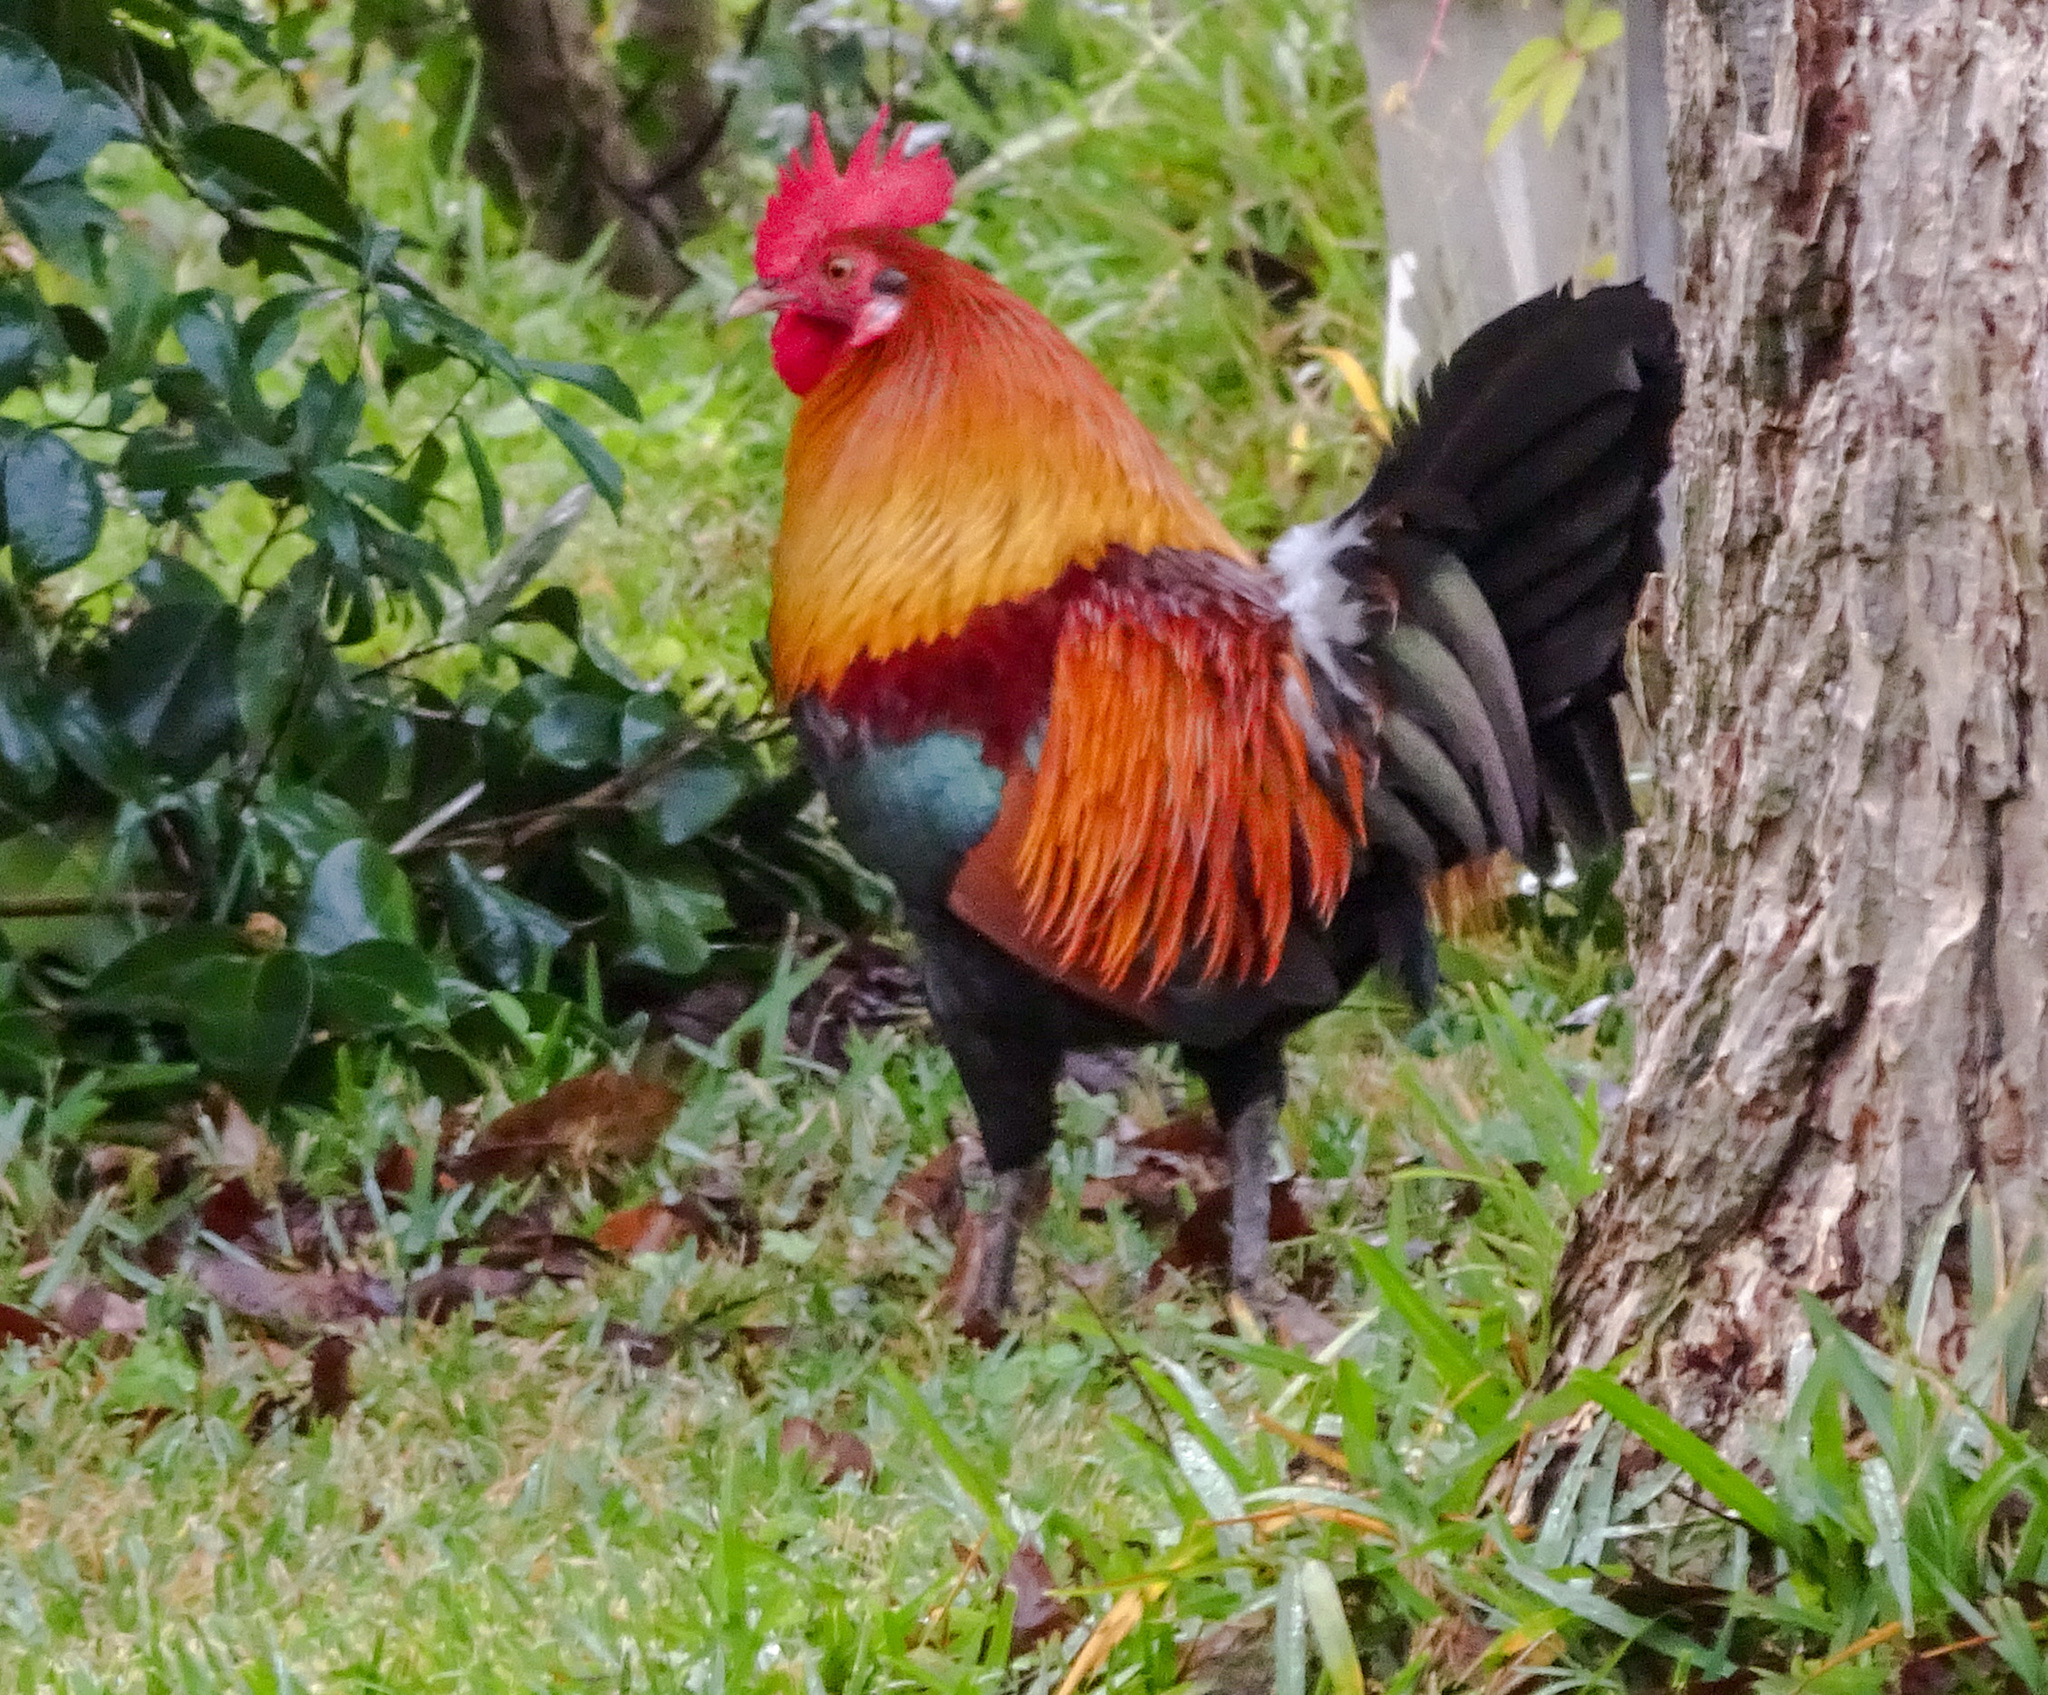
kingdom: Animalia
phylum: Chordata
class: Aves
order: Galliformes
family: Phasianidae
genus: Gallus
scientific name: Gallus gallus
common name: Red junglefowl
